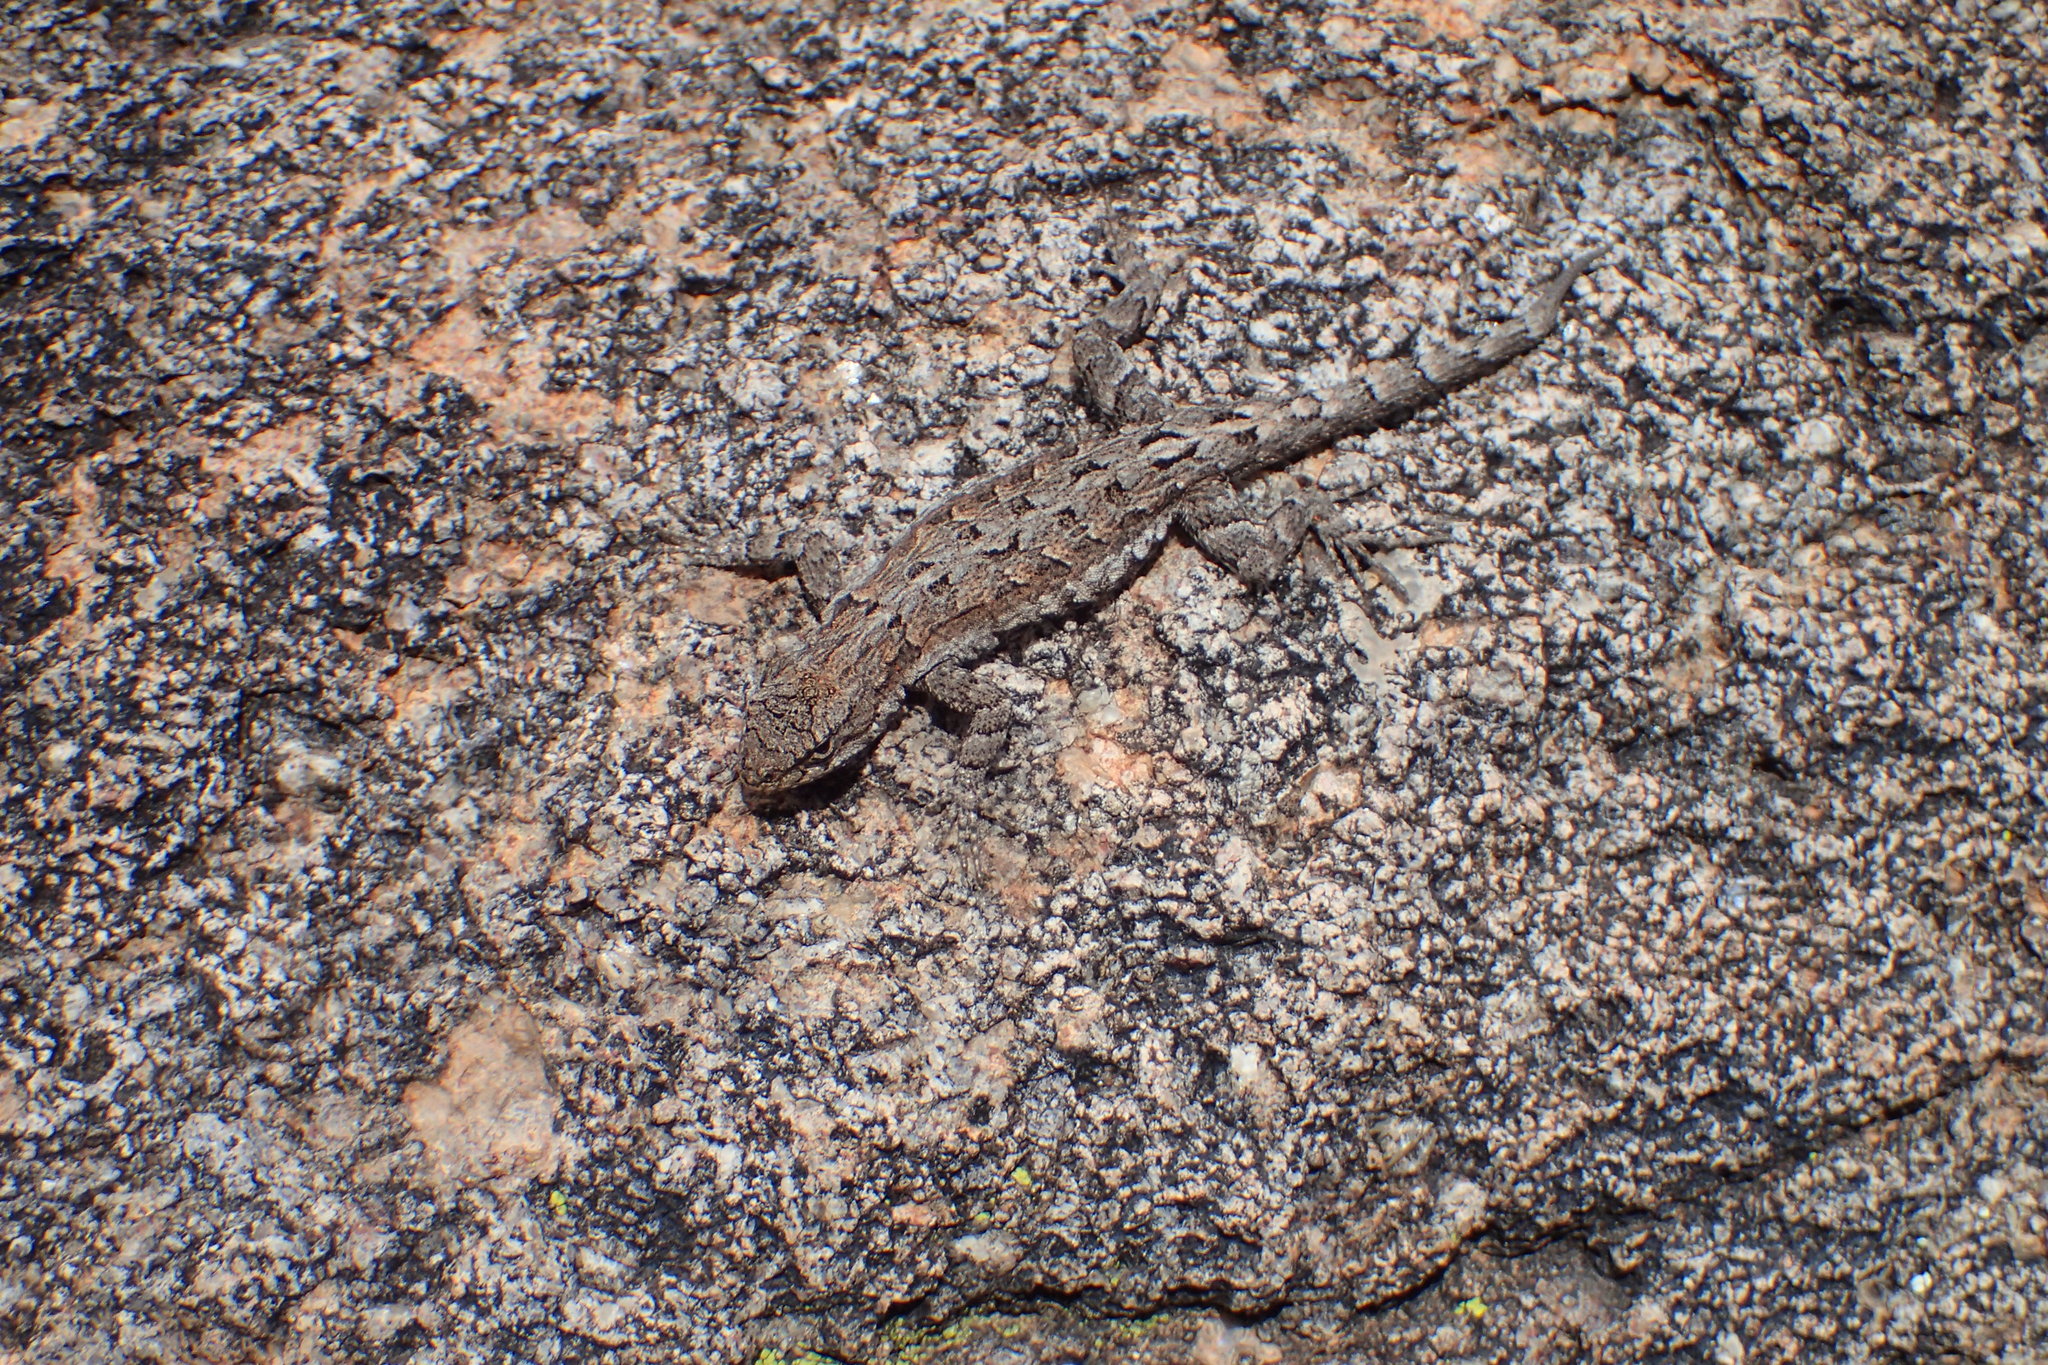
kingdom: Animalia
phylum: Chordata
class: Squamata
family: Phrynosomatidae
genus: Urosaurus
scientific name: Urosaurus ornatus
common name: Ornate tree lizard
